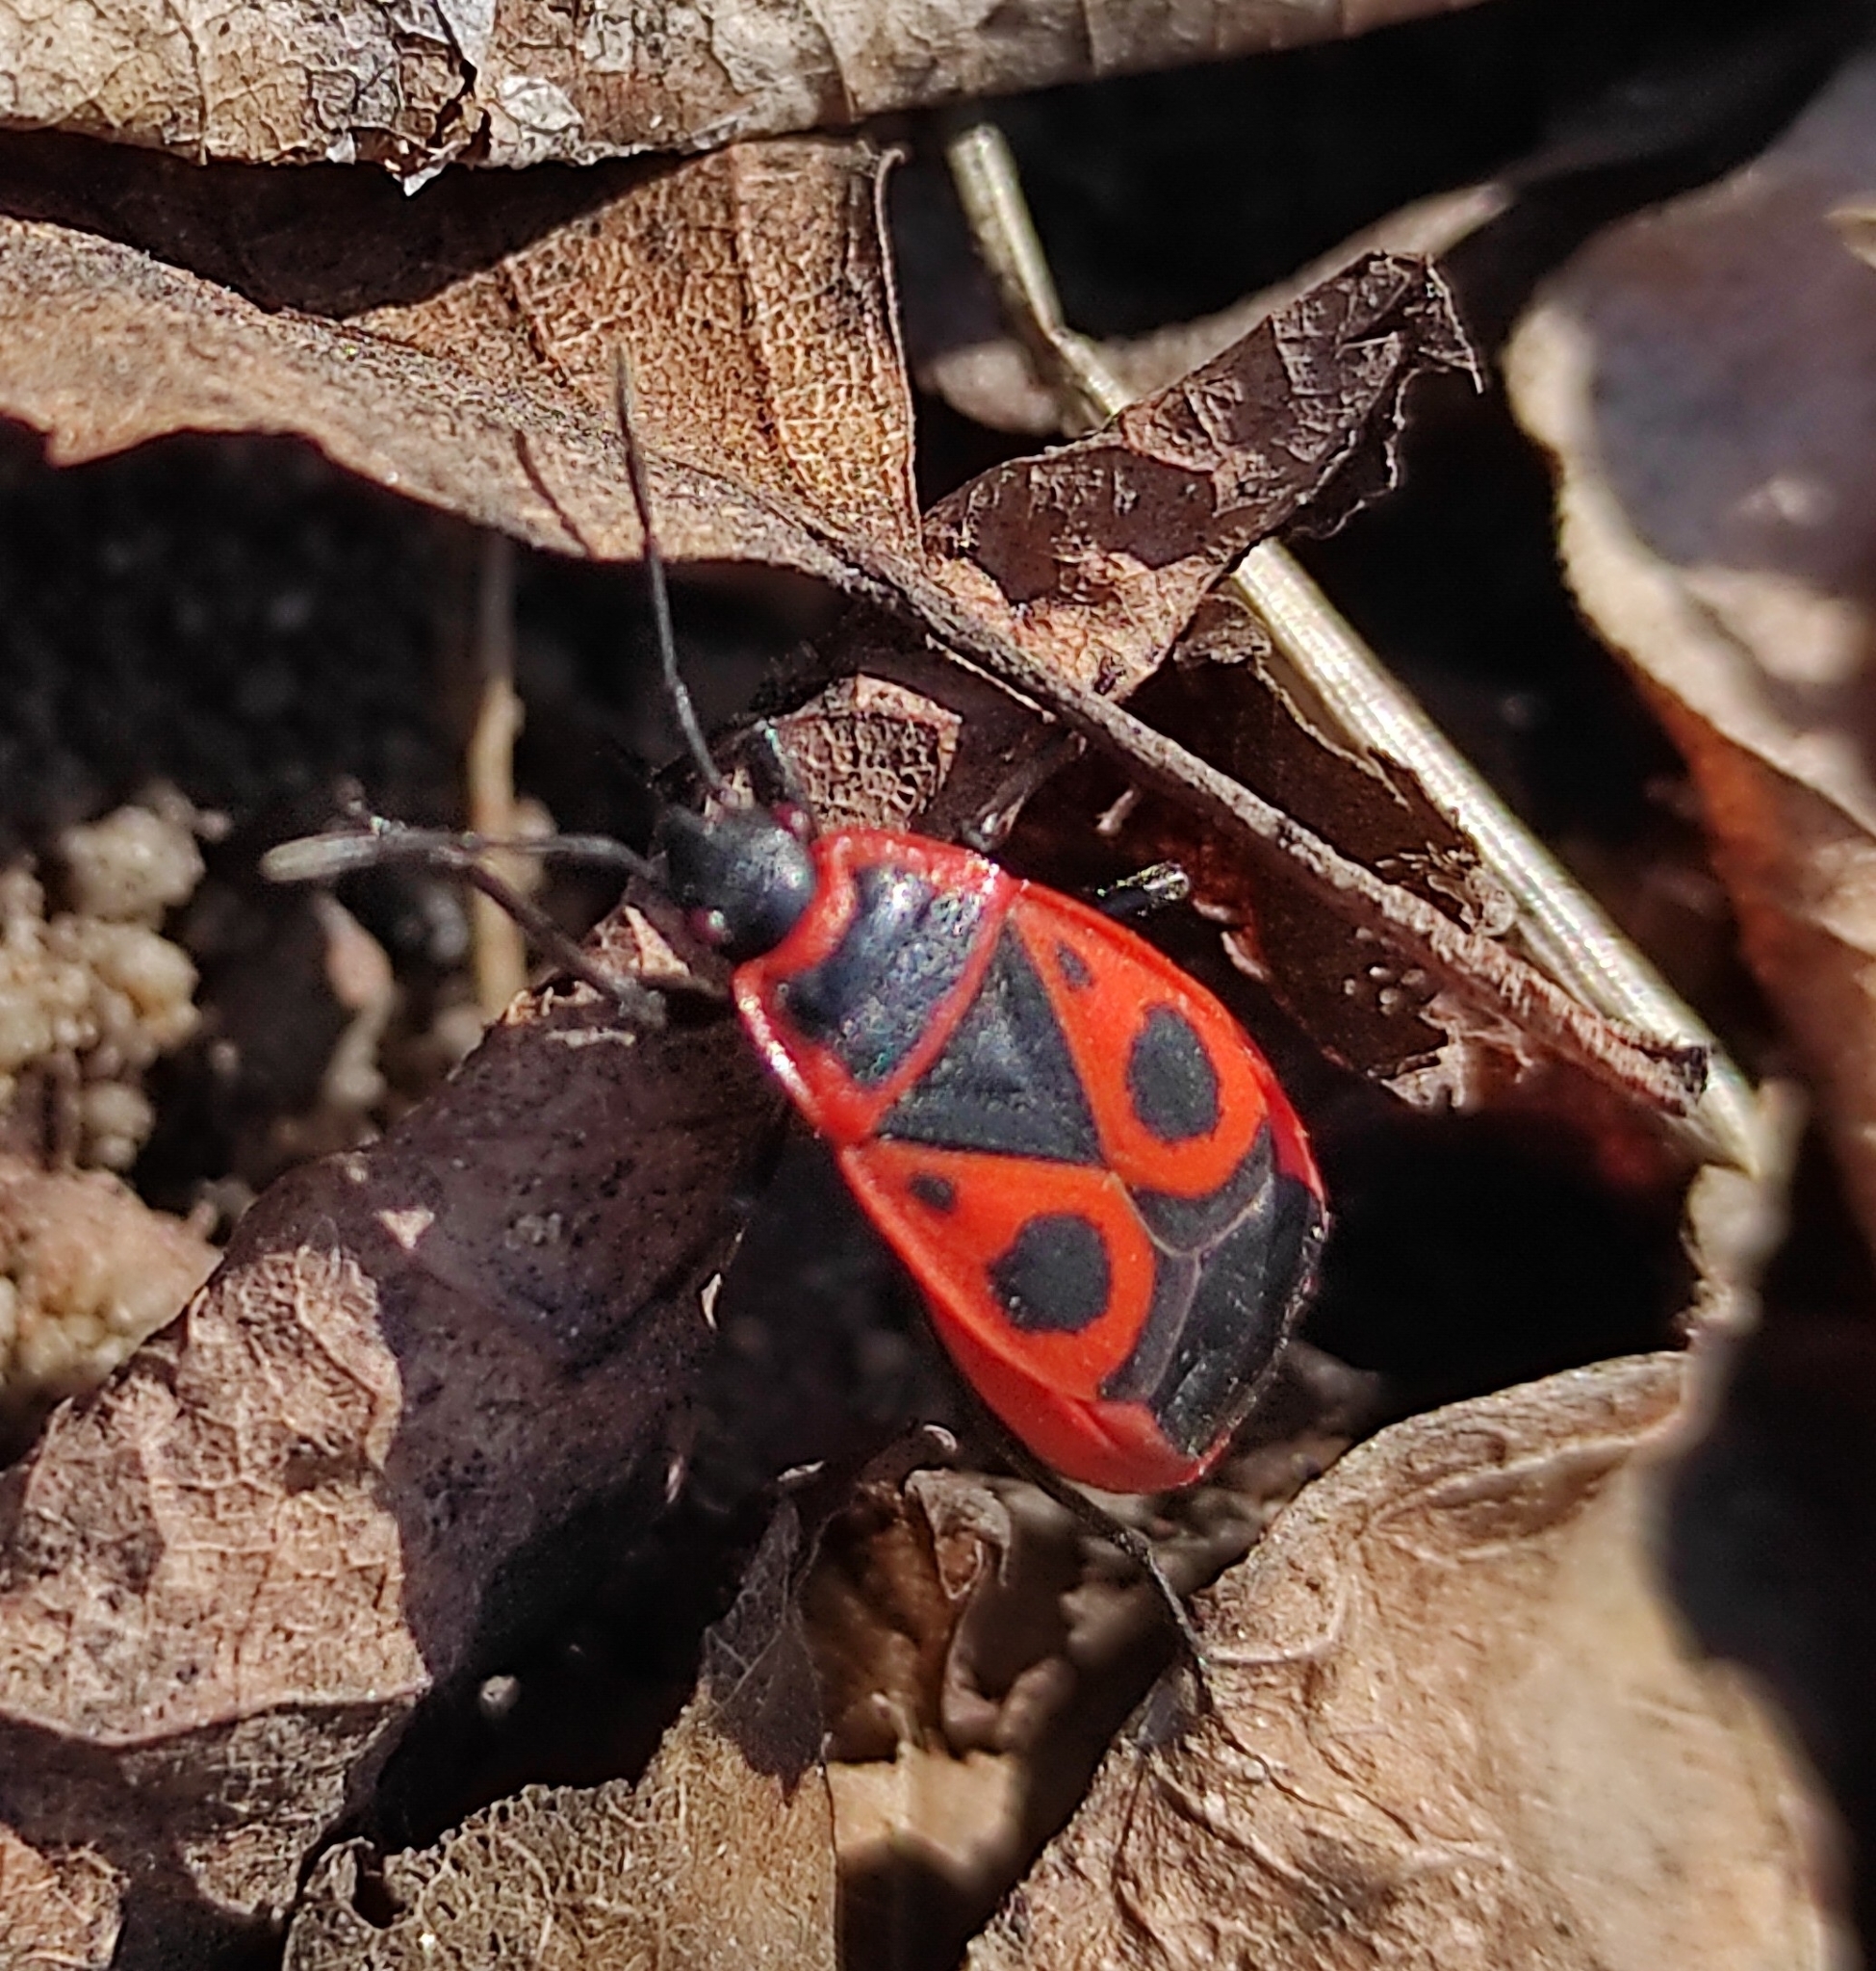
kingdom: Animalia
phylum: Arthropoda
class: Insecta
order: Hemiptera
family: Pyrrhocoridae
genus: Pyrrhocoris
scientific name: Pyrrhocoris apterus
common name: Firebug
